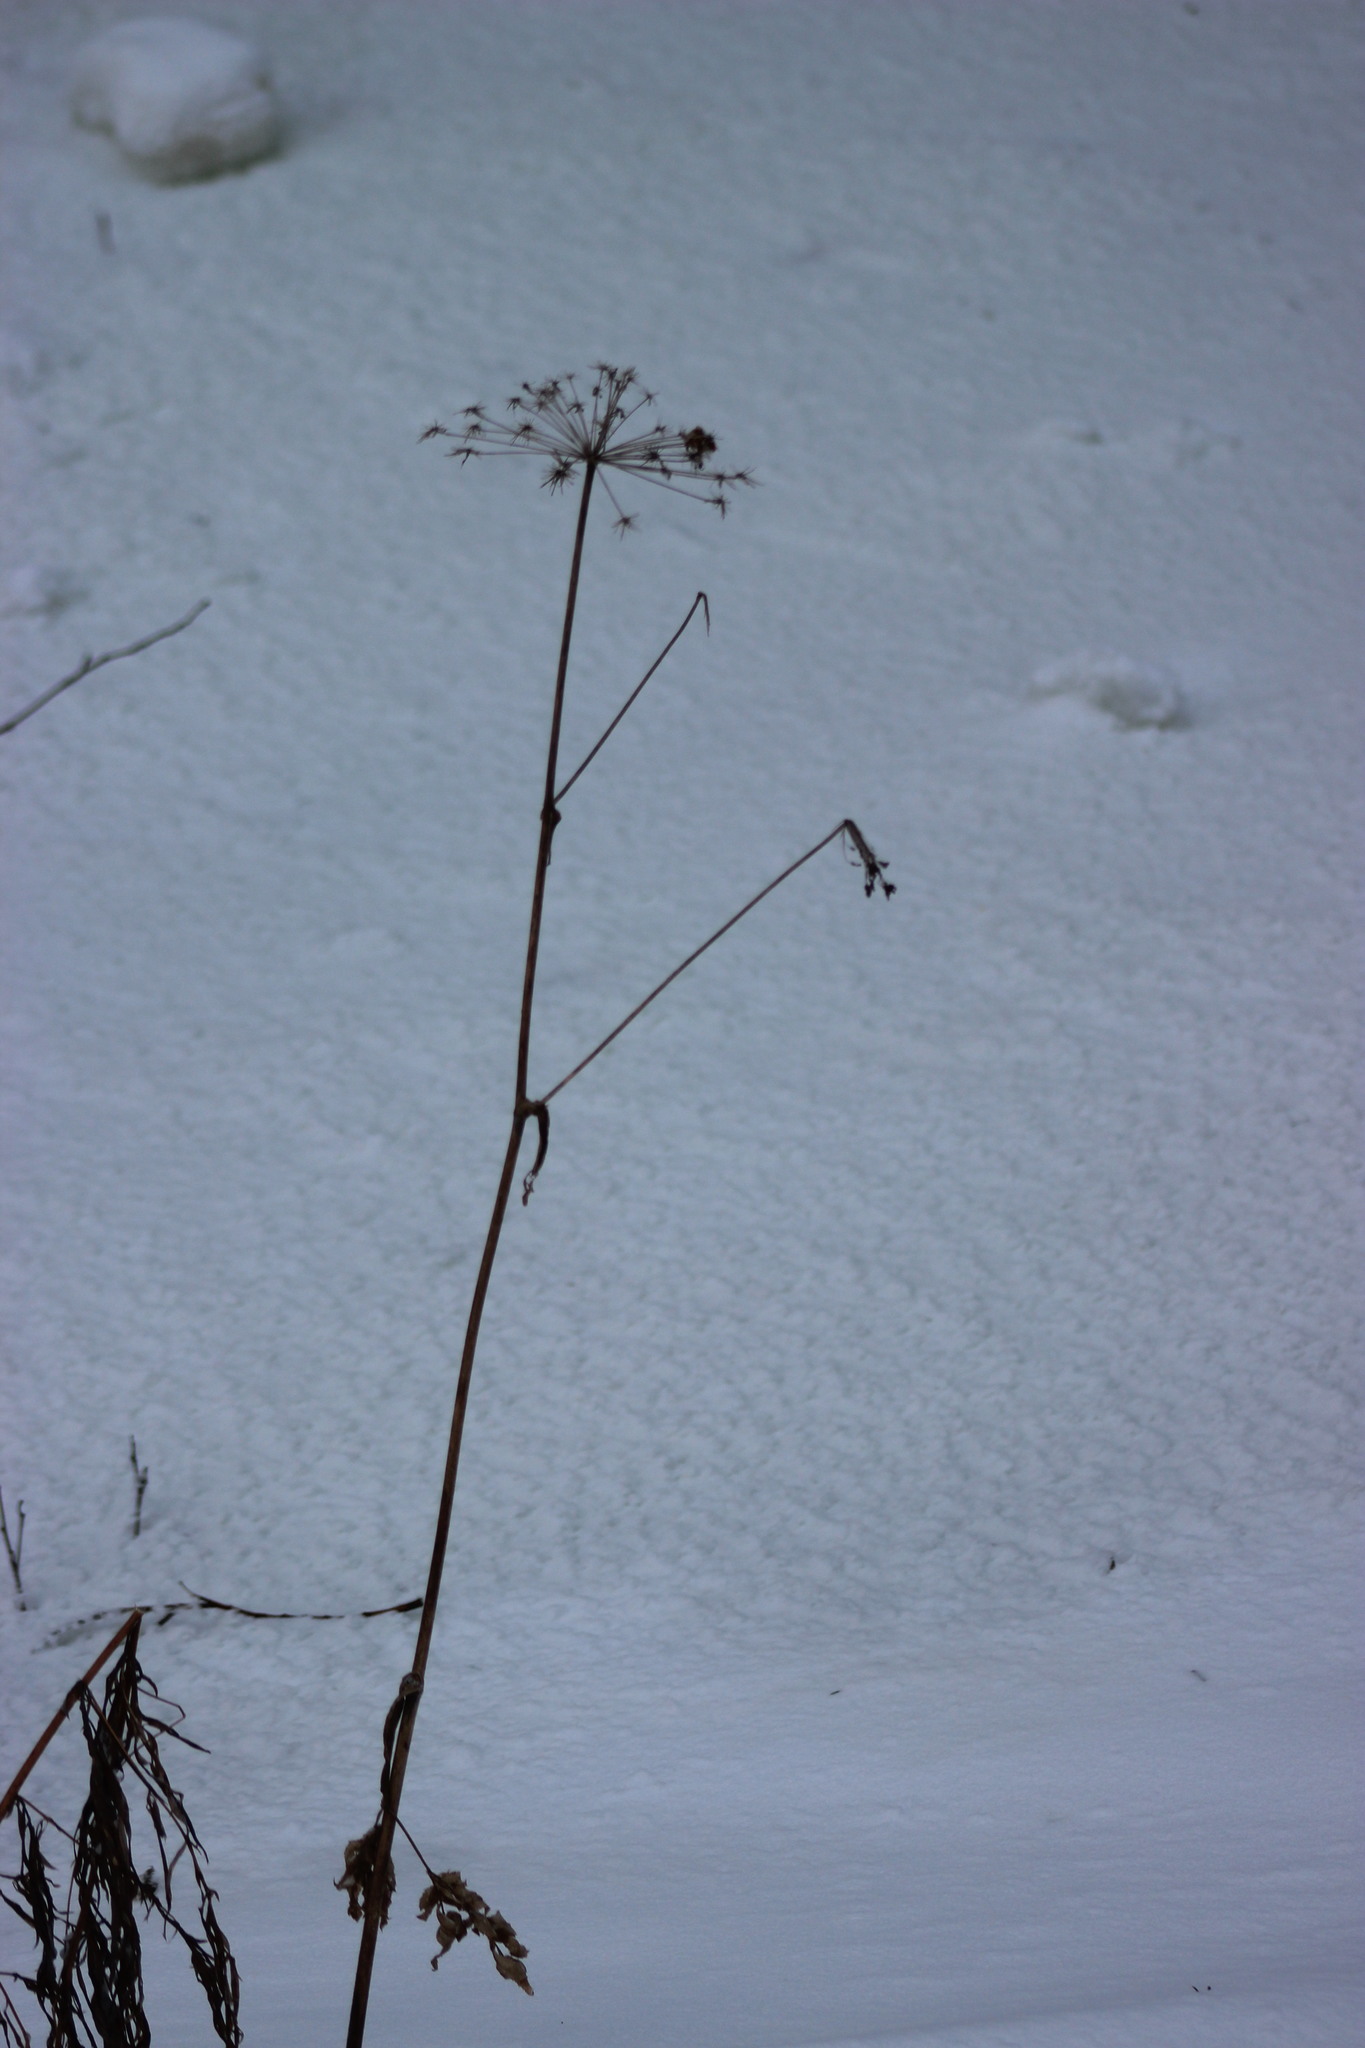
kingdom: Plantae
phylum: Tracheophyta
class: Magnoliopsida
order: Apiales
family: Apiaceae
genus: Angelica
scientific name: Angelica sylvestris
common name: Wild angelica
